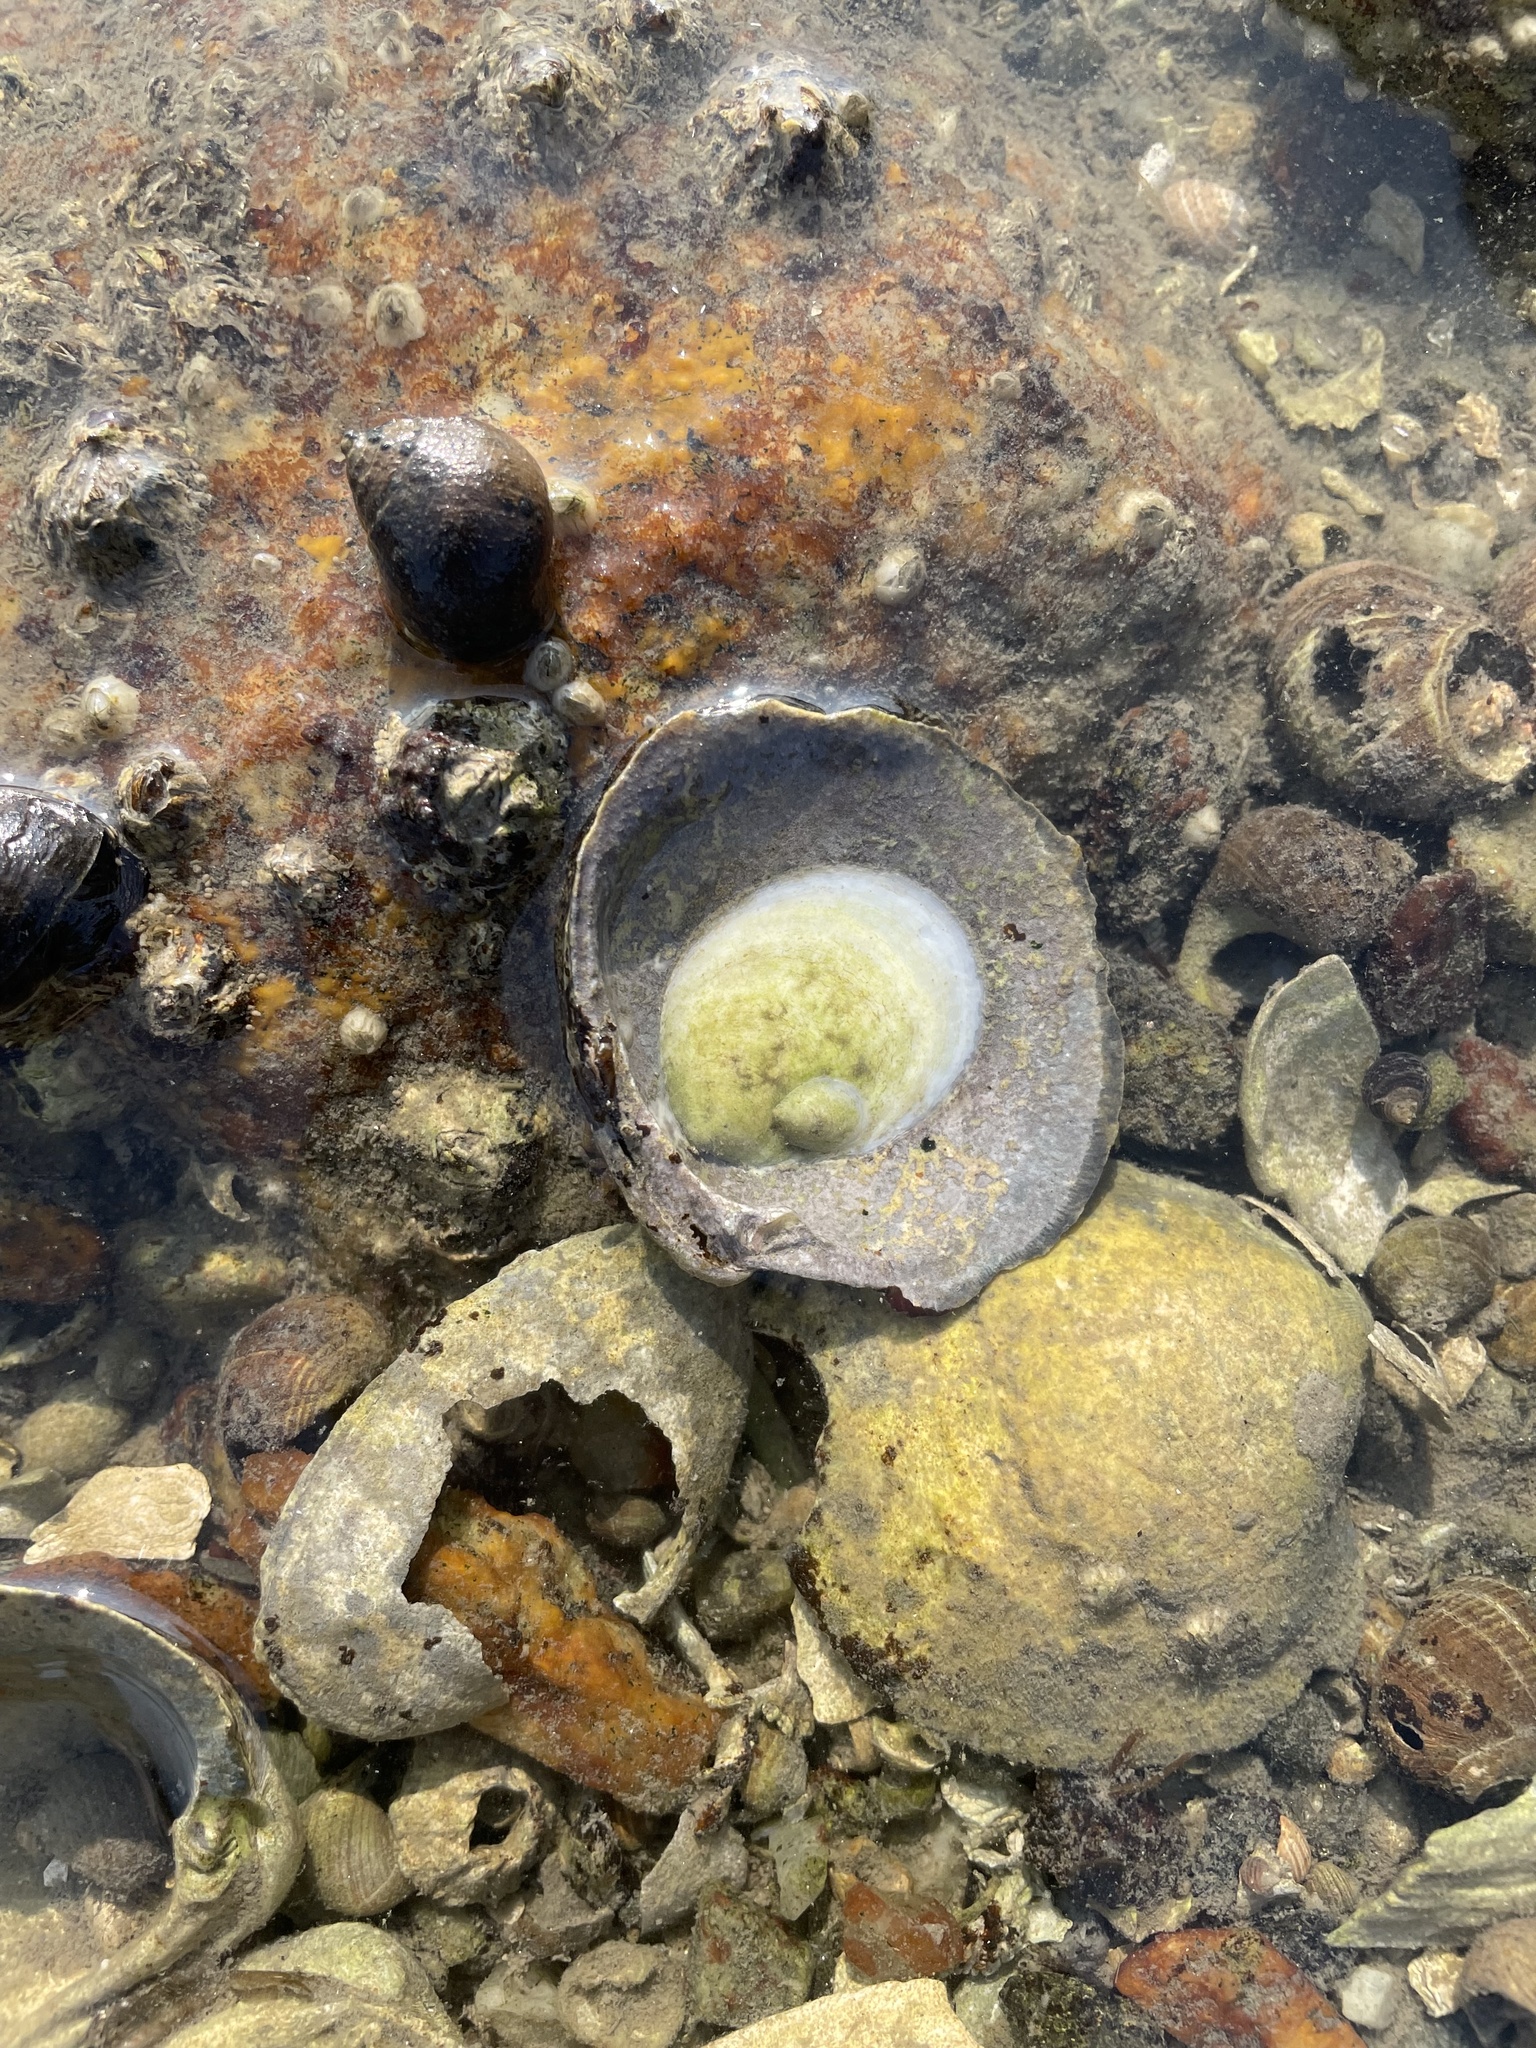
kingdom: Animalia
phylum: Mollusca
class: Gastropoda
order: Littorinimorpha
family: Calyptraeidae
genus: Crepidula
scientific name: Crepidula plana
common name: Eastern white slippersnail
